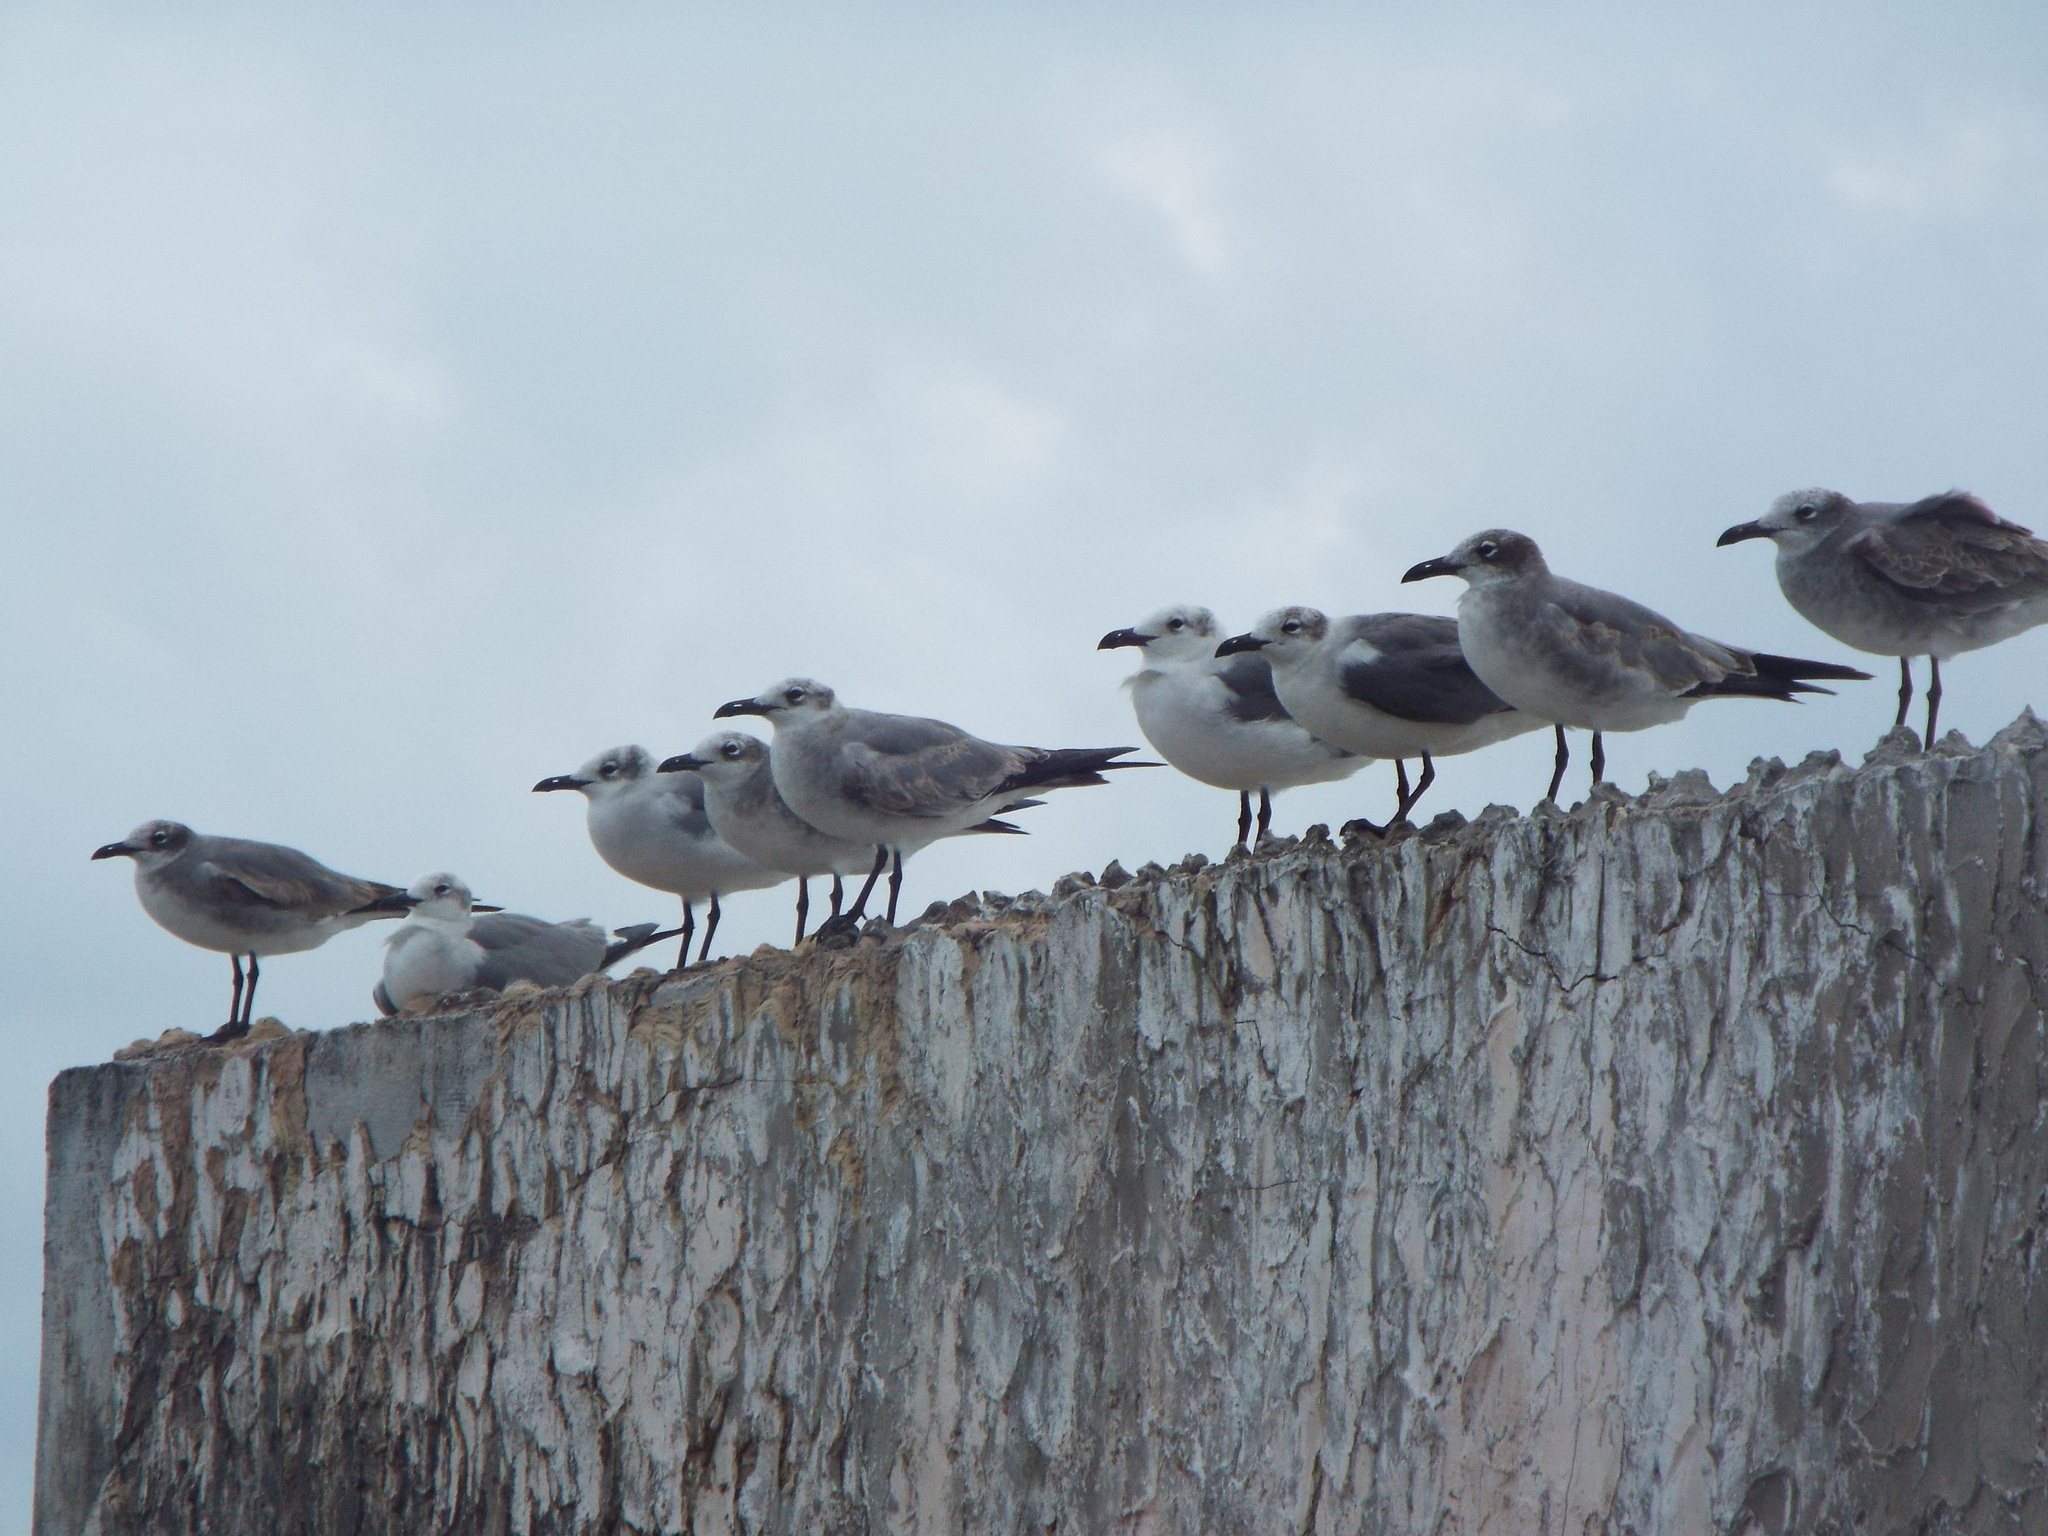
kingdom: Animalia
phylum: Chordata
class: Aves
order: Charadriiformes
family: Laridae
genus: Leucophaeus
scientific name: Leucophaeus atricilla
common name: Laughing gull
